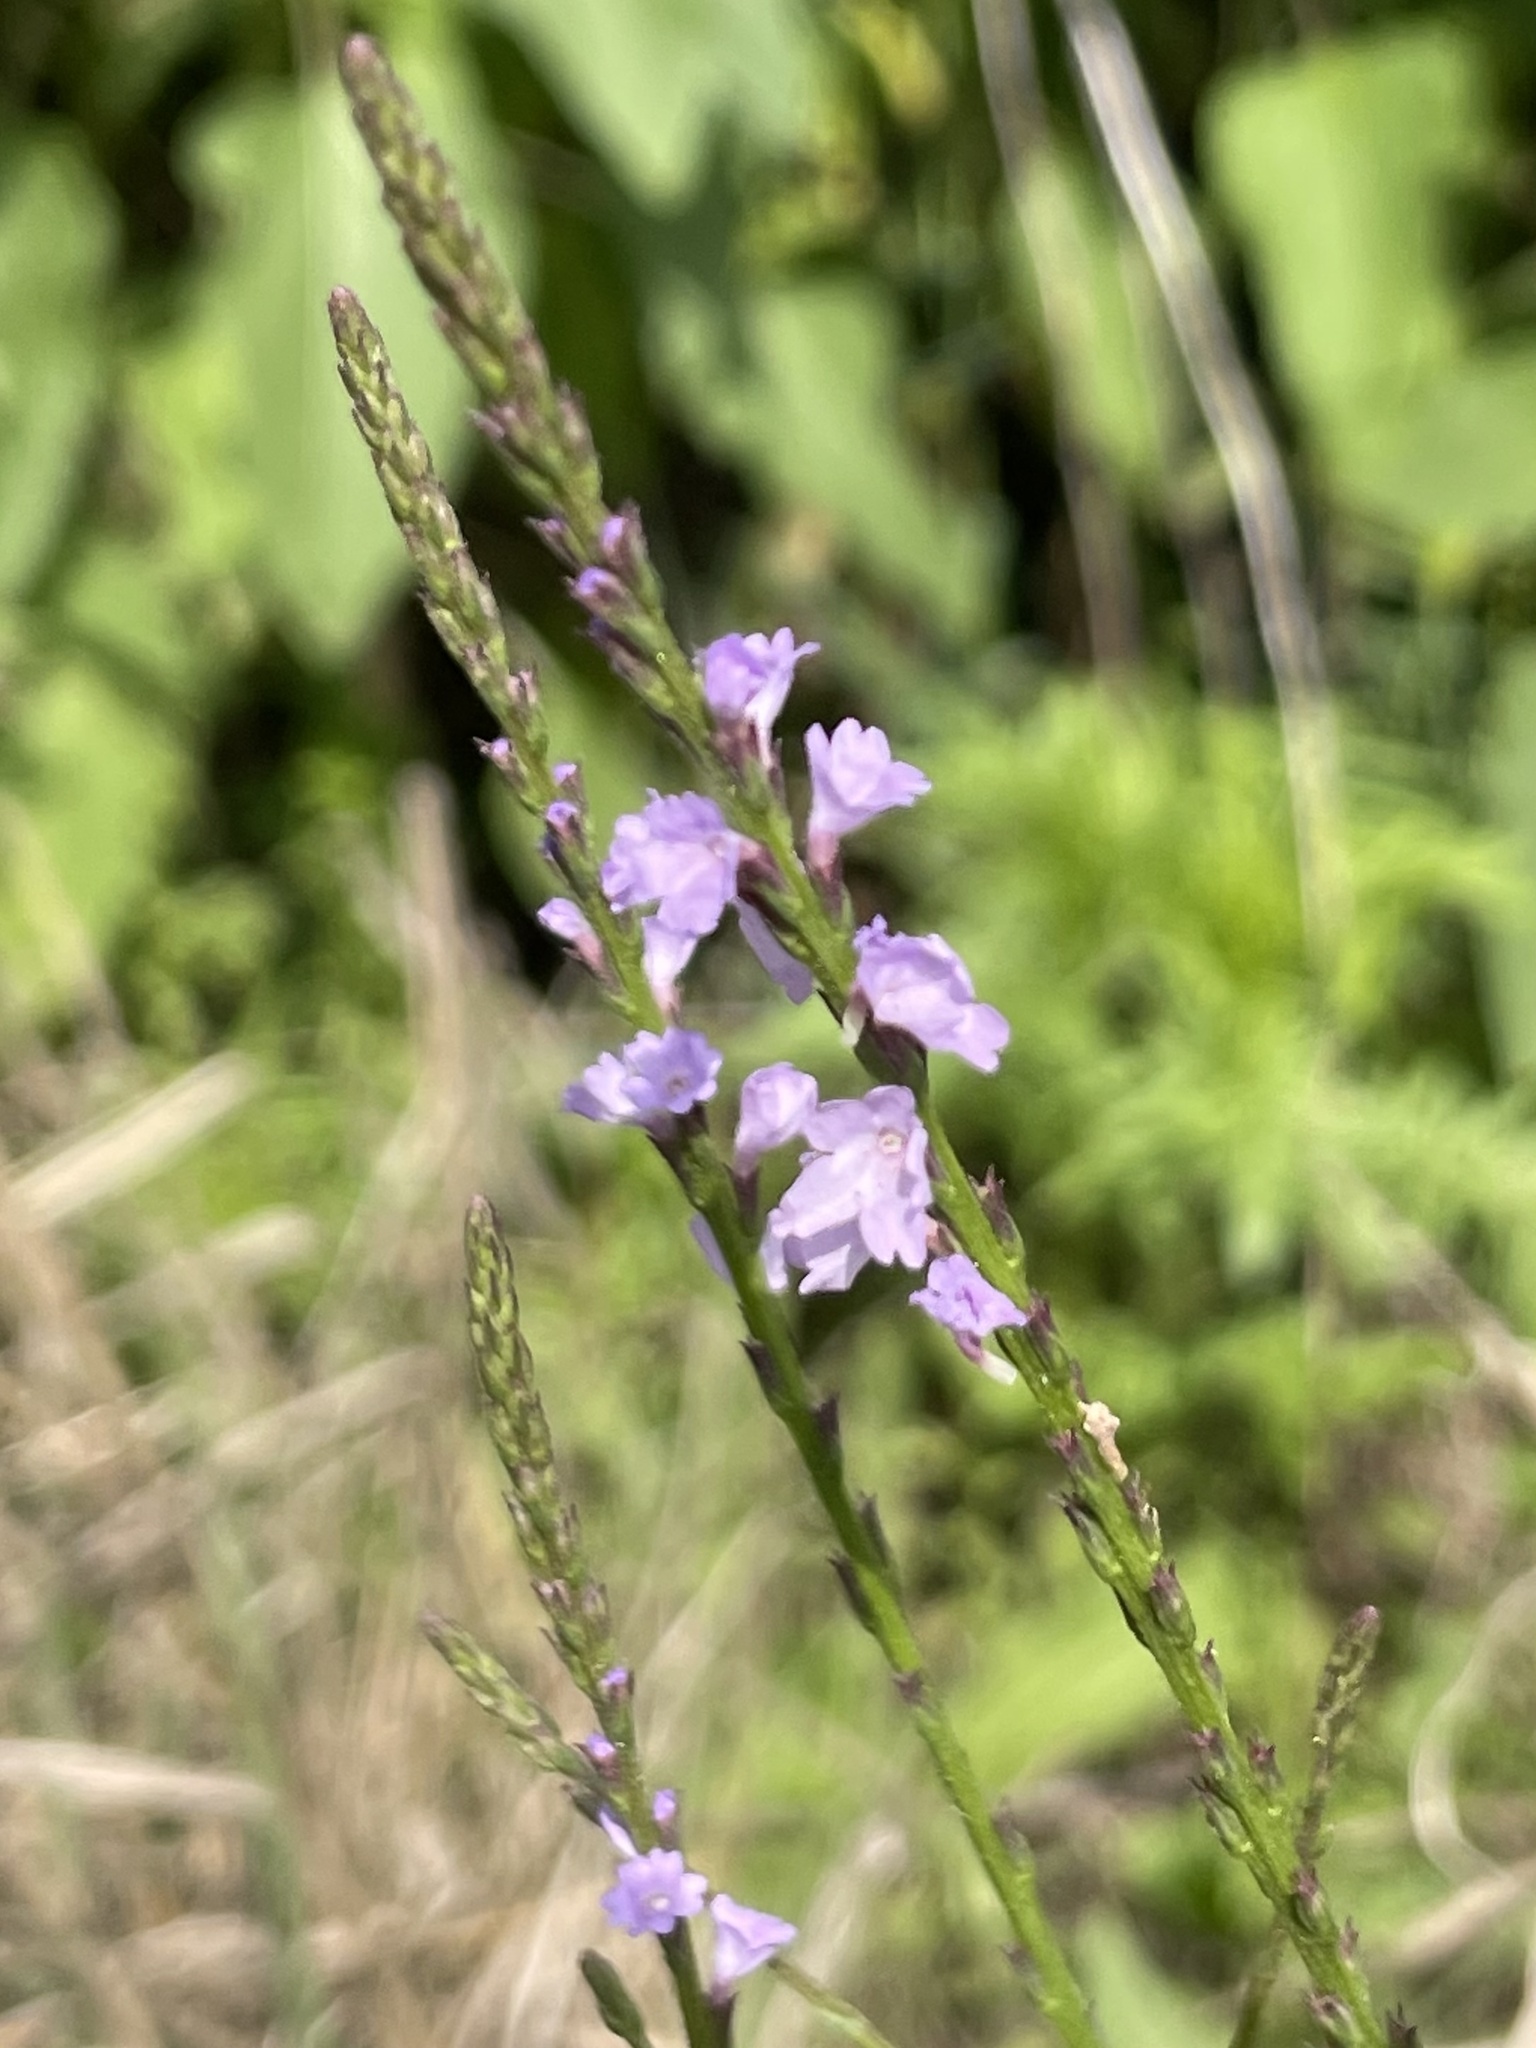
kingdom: Plantae
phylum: Tracheophyta
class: Magnoliopsida
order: Lamiales
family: Verbenaceae
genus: Verbena
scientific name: Verbena halei
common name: Texas vervain
